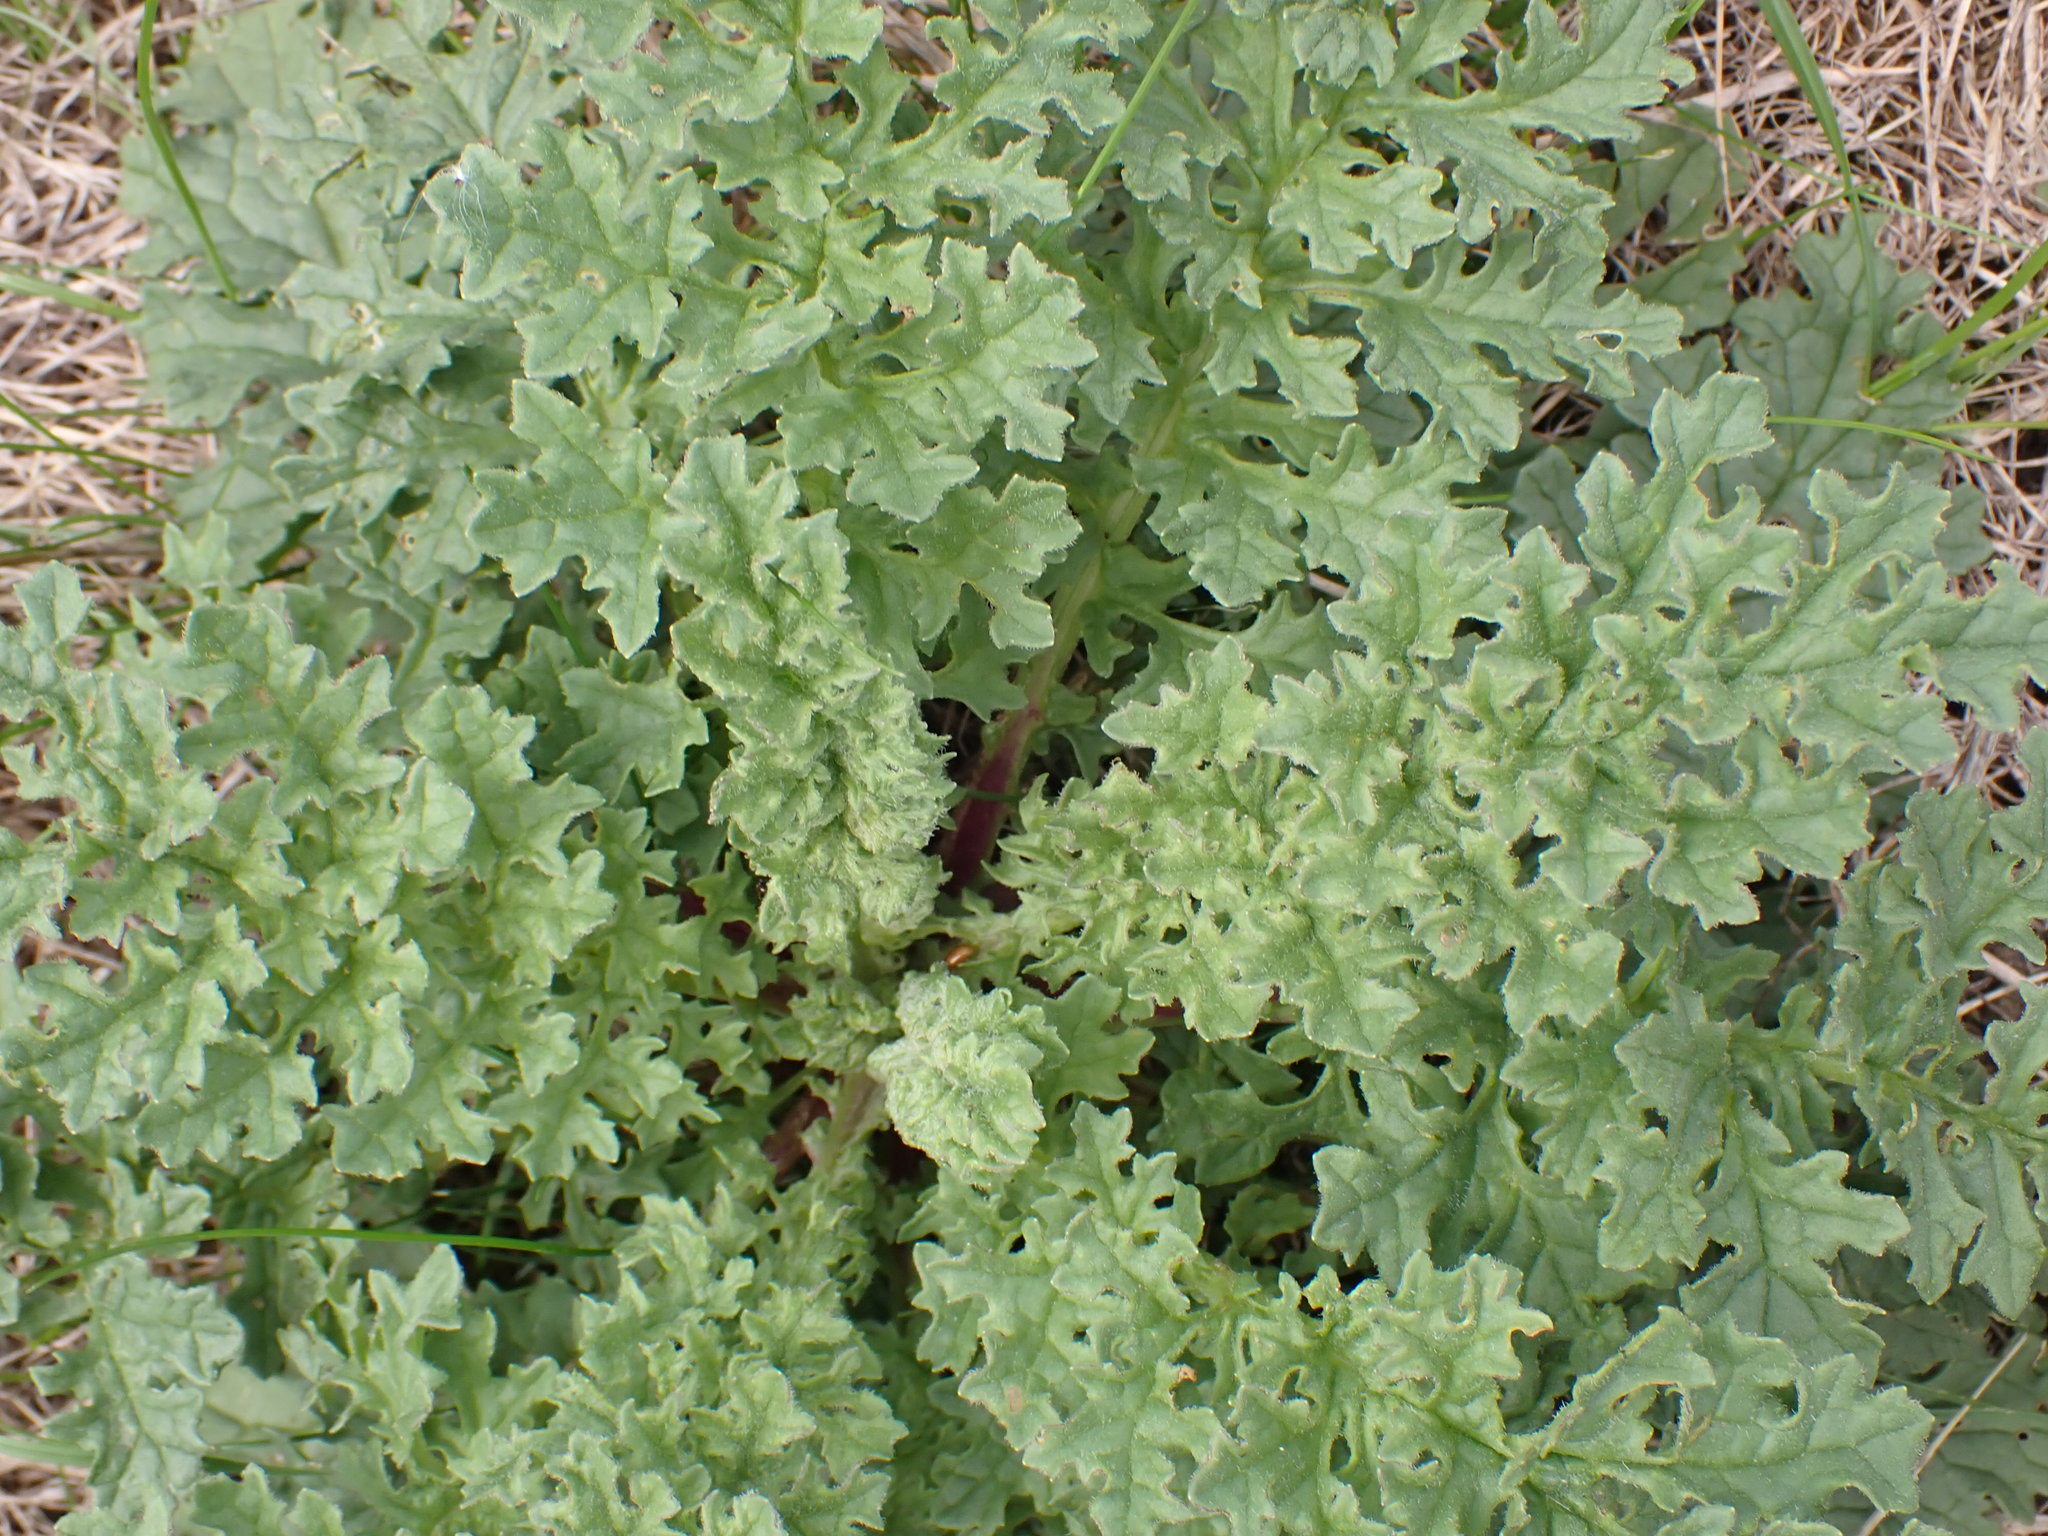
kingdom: Plantae
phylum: Tracheophyta
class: Magnoliopsida
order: Asterales
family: Asteraceae
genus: Jacobaea
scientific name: Jacobaea vulgaris
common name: Stinking willie
